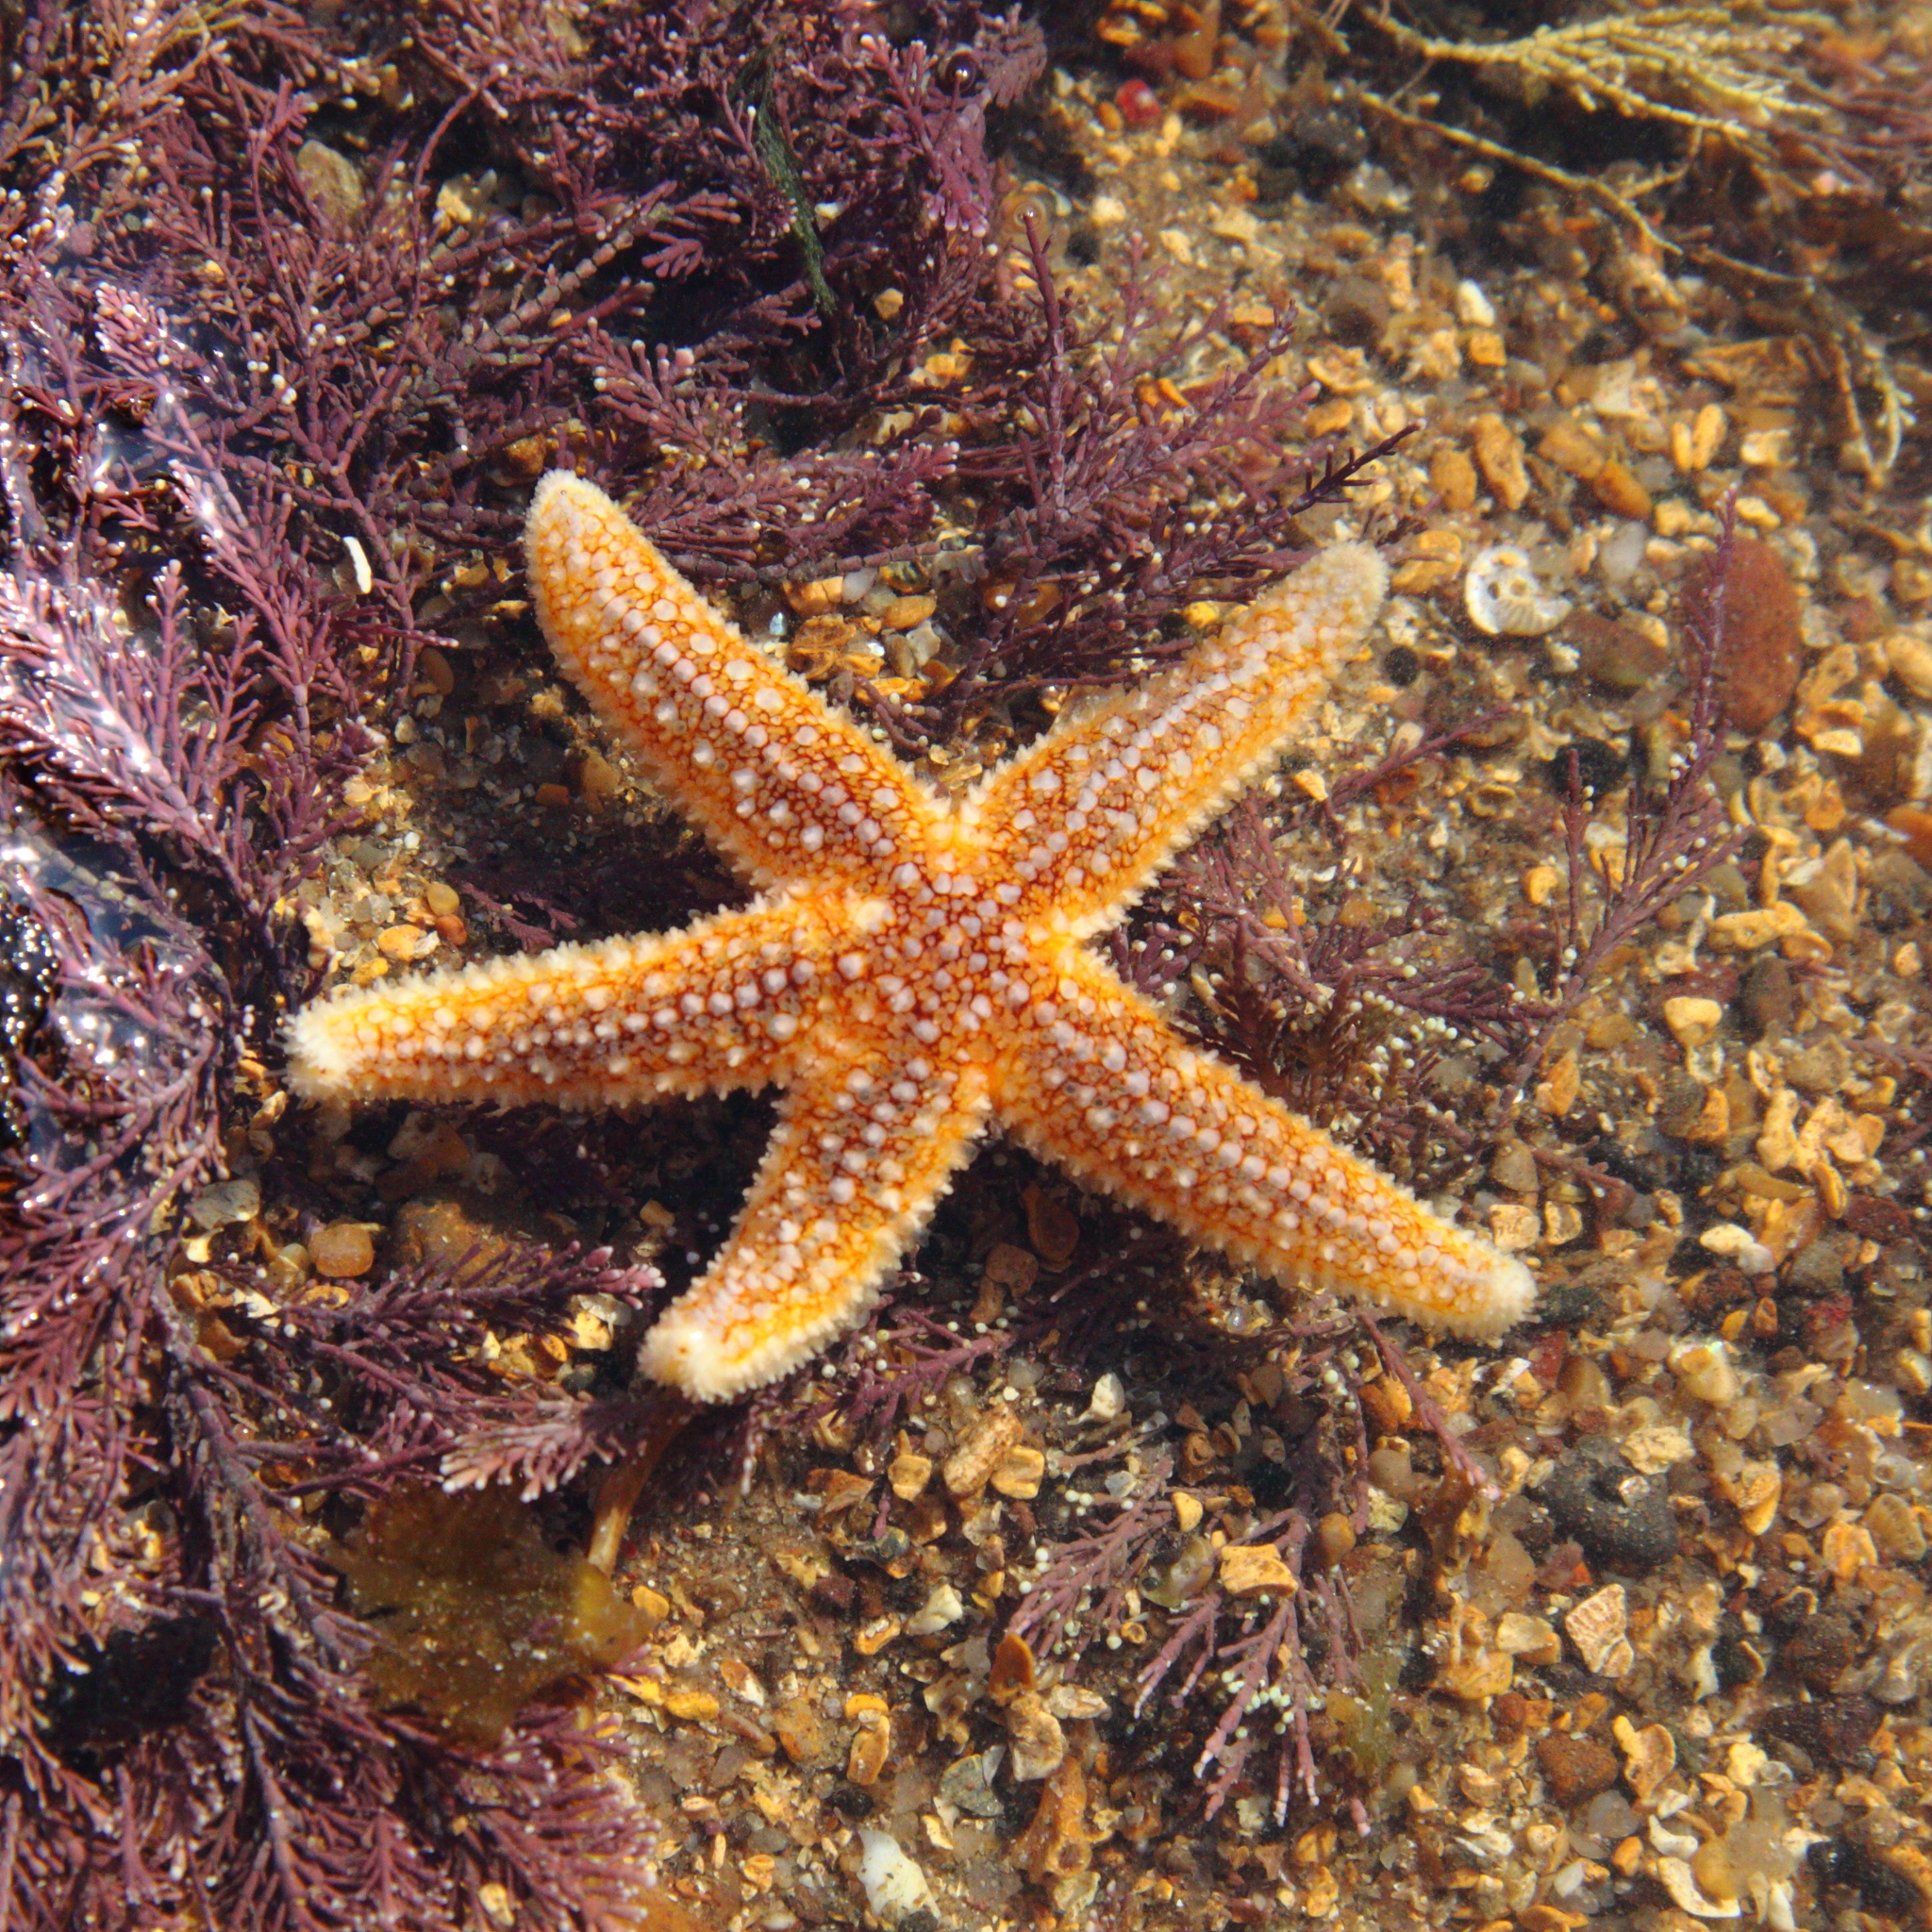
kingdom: Animalia
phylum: Echinodermata
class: Asteroidea
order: Forcipulatida
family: Asteriidae
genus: Asterias
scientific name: Asterias rubens
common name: Common starfish
